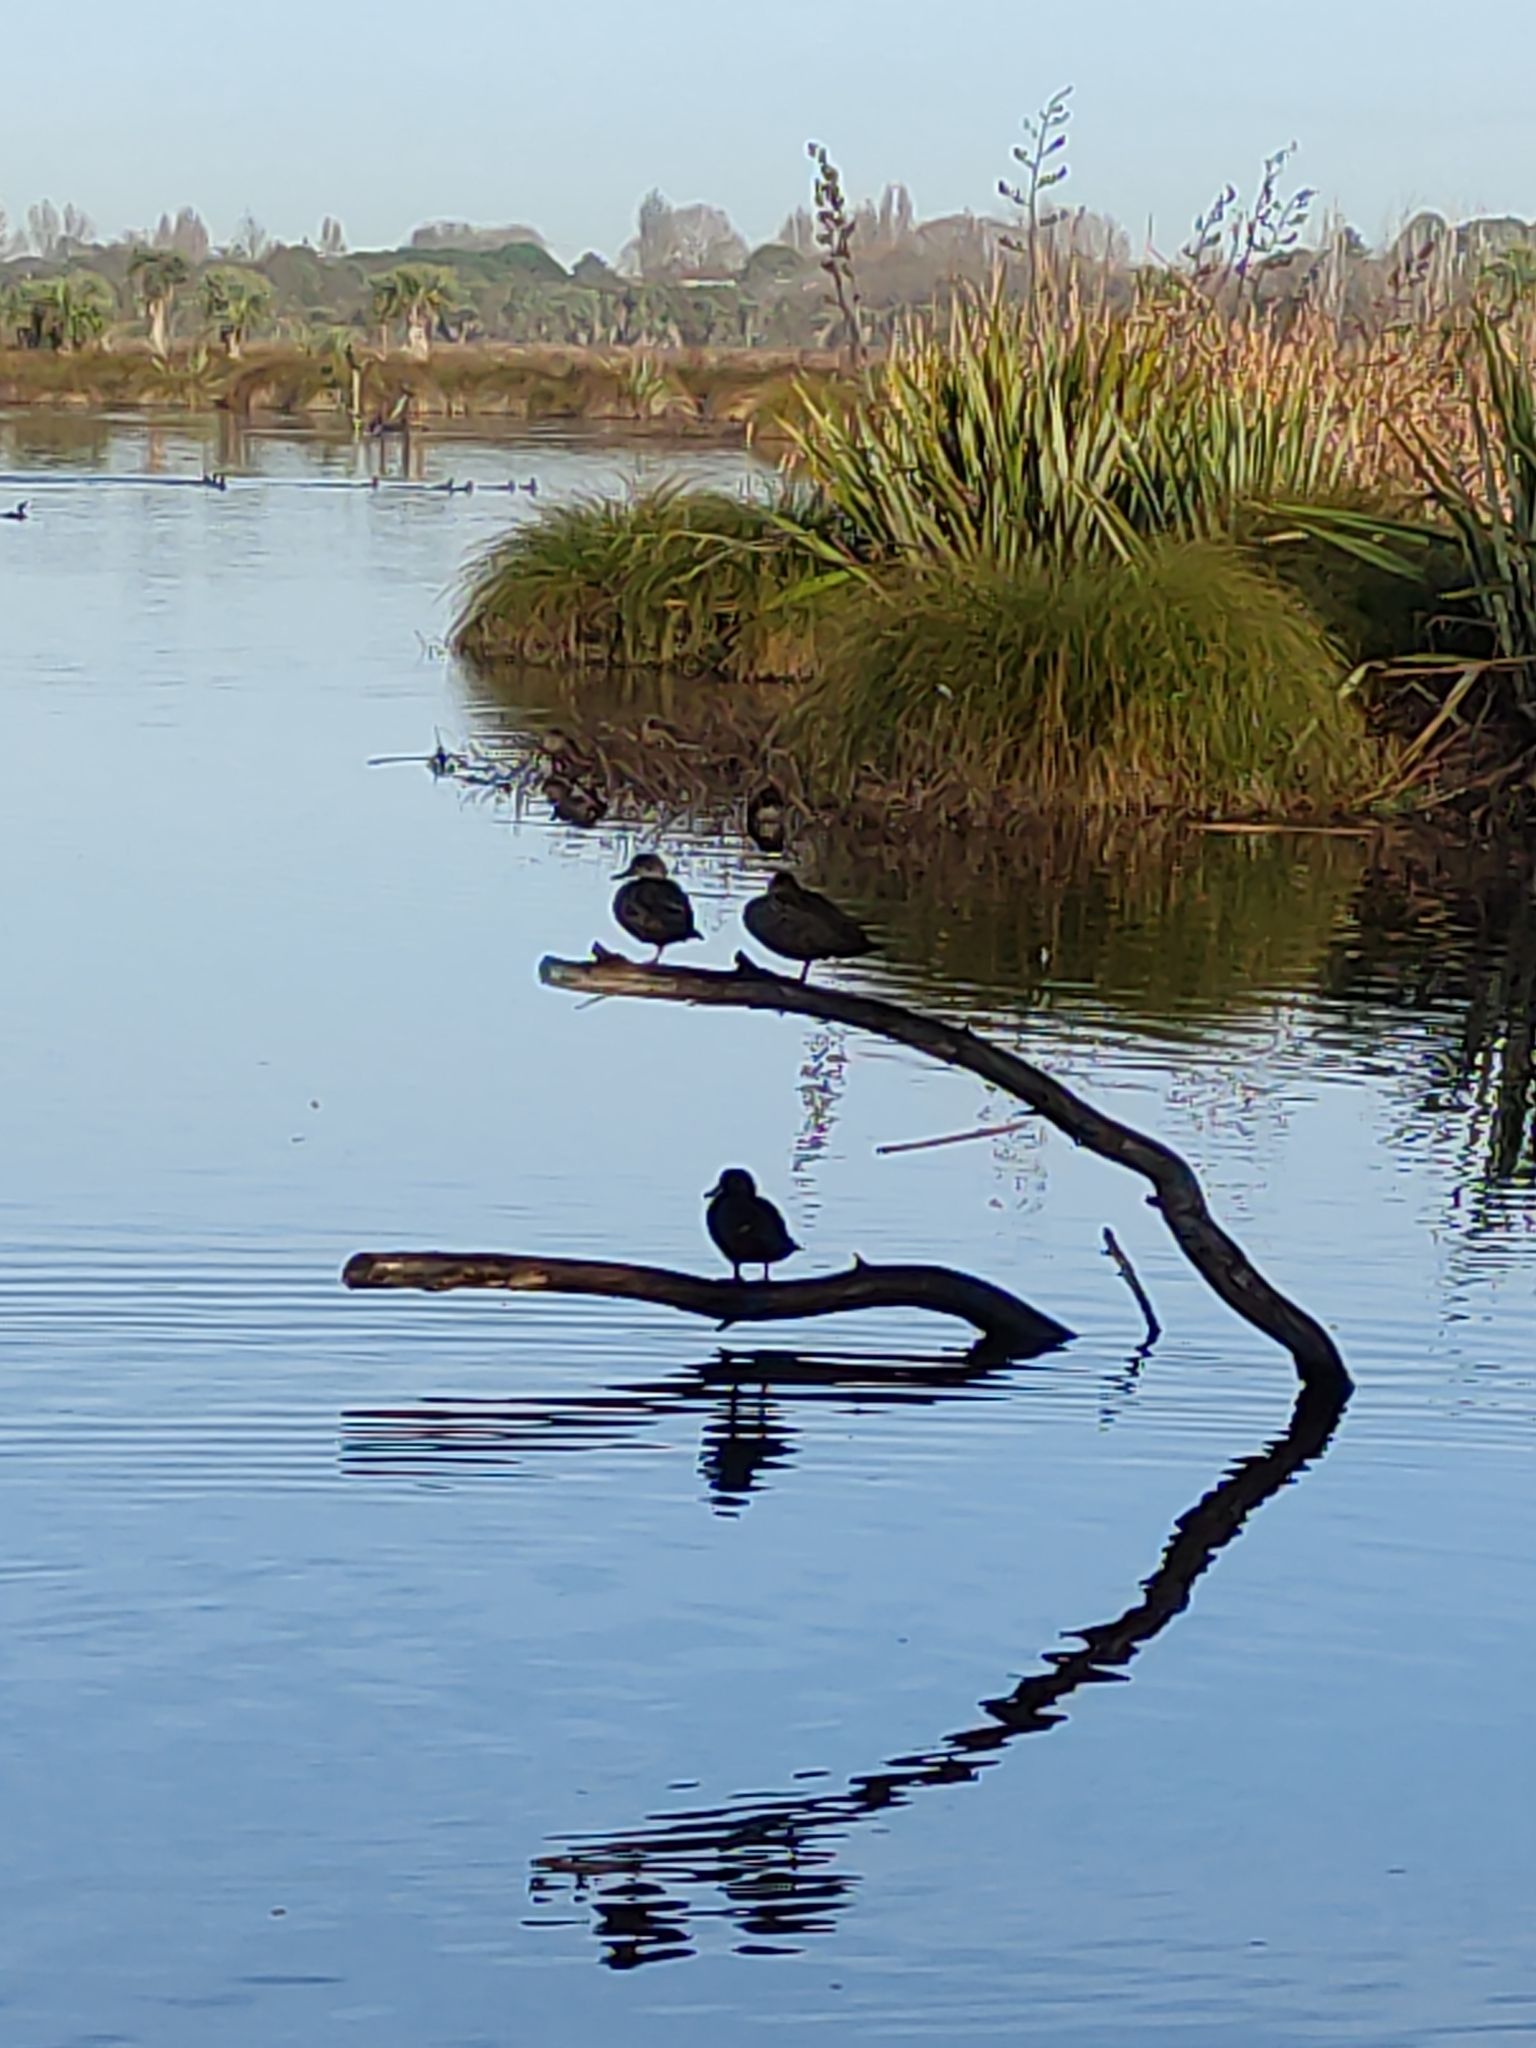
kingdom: Animalia
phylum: Chordata
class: Aves
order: Anseriformes
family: Anatidae
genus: Anas
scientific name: Anas gracilis
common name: Grey teal
